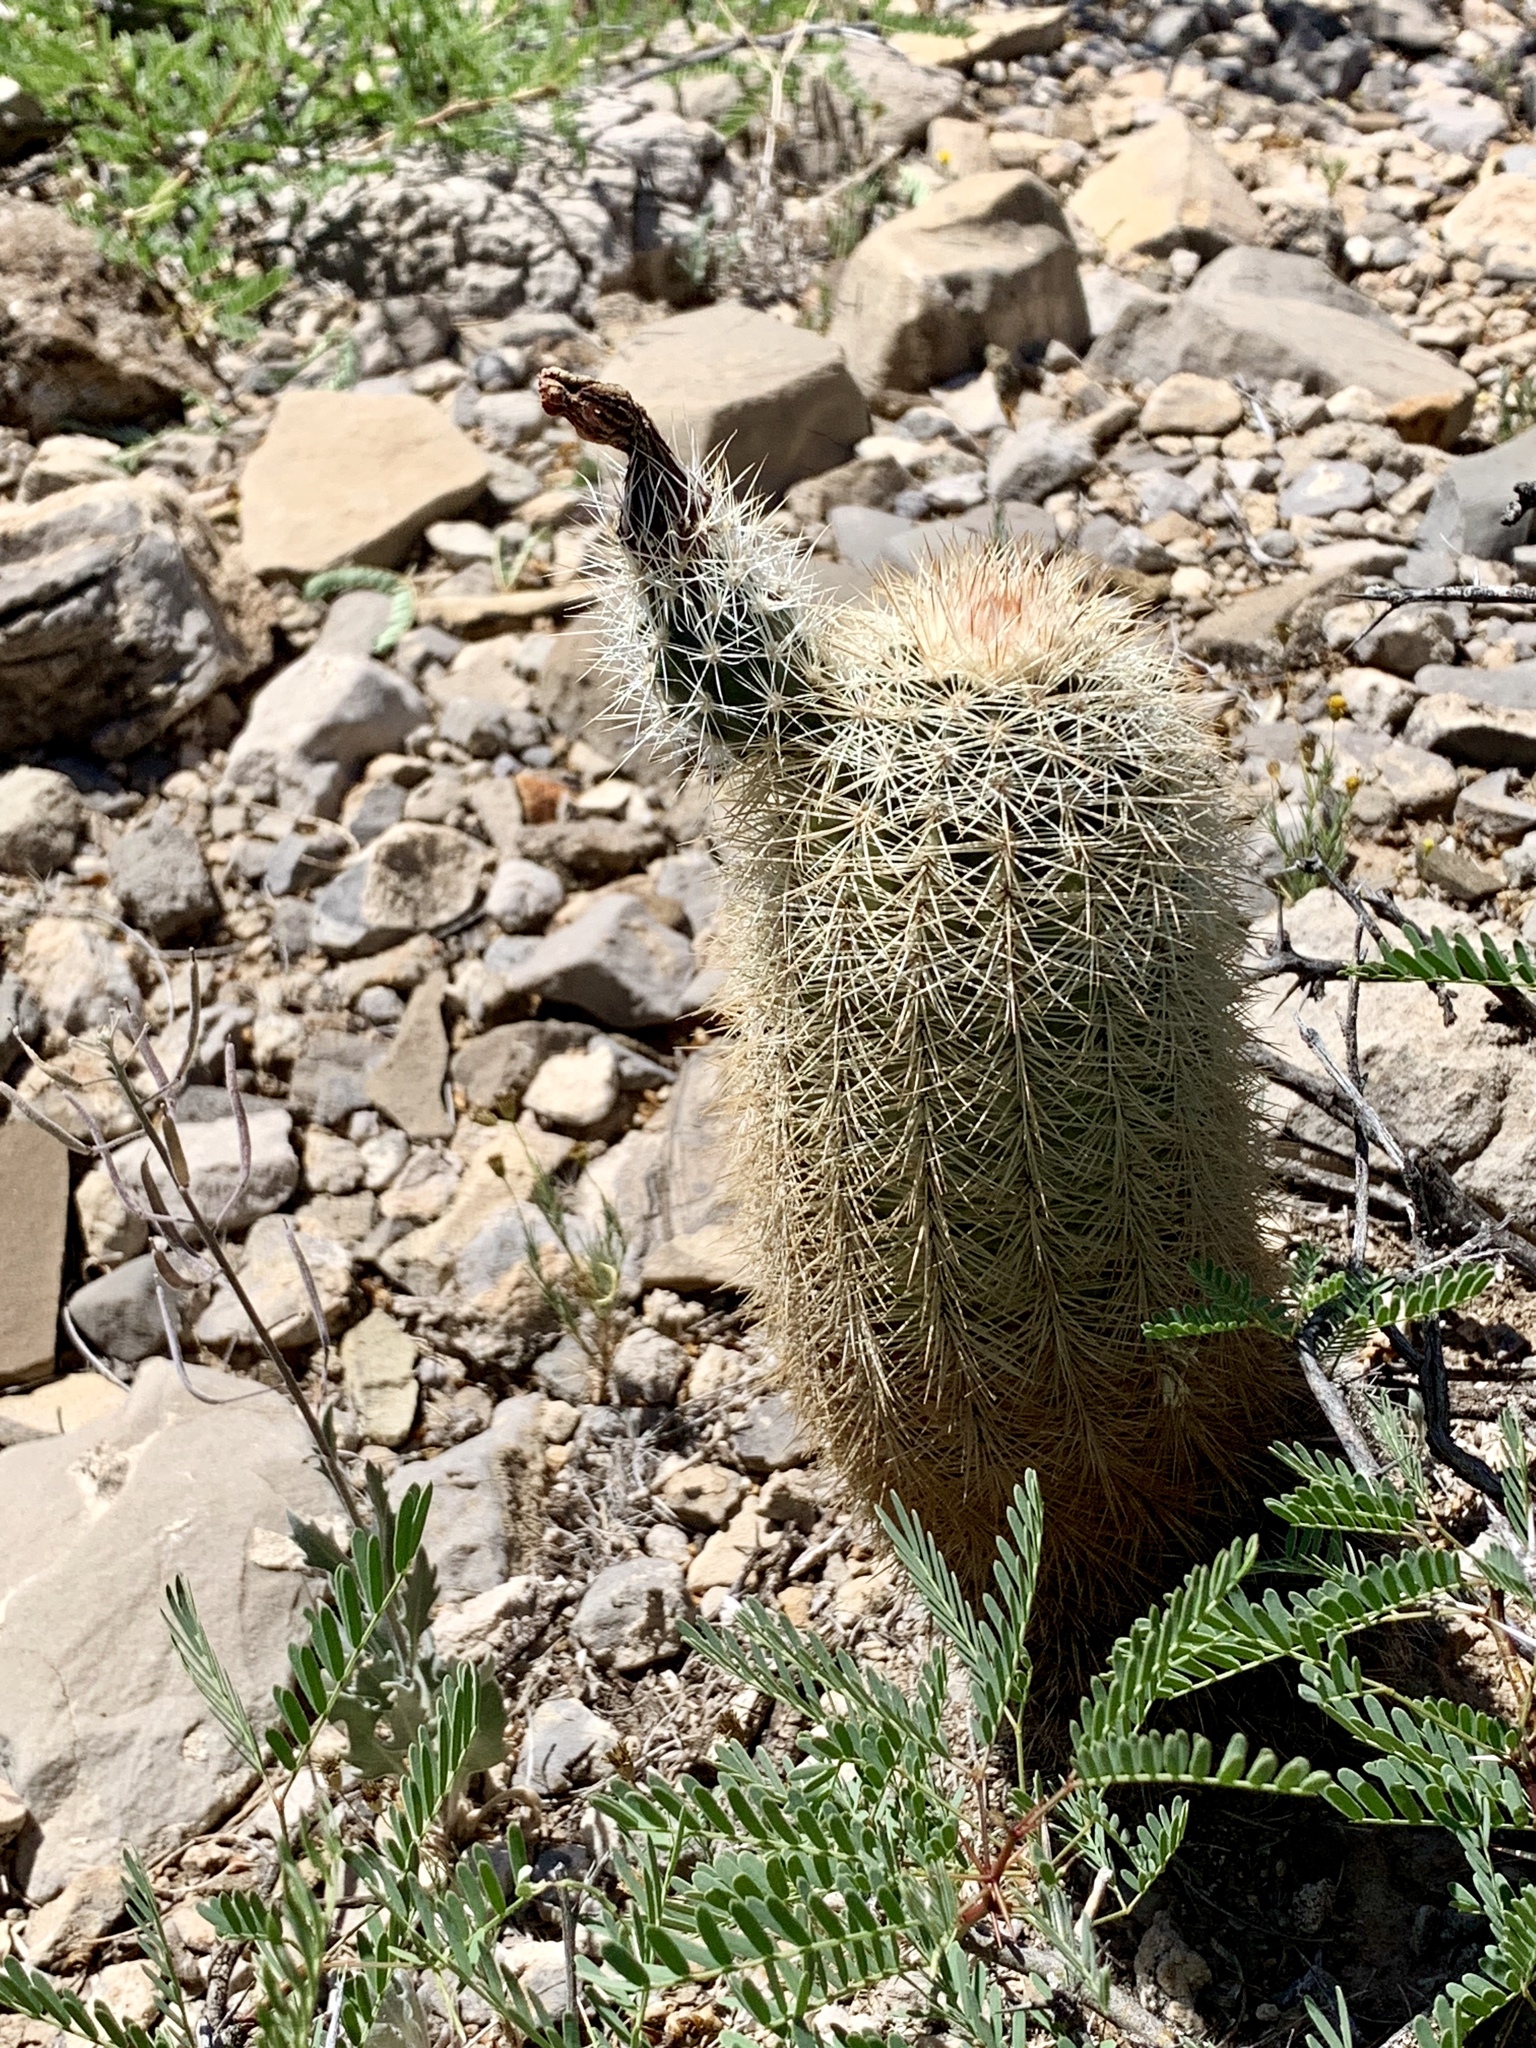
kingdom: Plantae
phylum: Tracheophyta
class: Magnoliopsida
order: Caryophyllales
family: Cactaceae
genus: Echinocereus
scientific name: Echinocereus dasyacanthus
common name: Spiny hedgehog cactus
